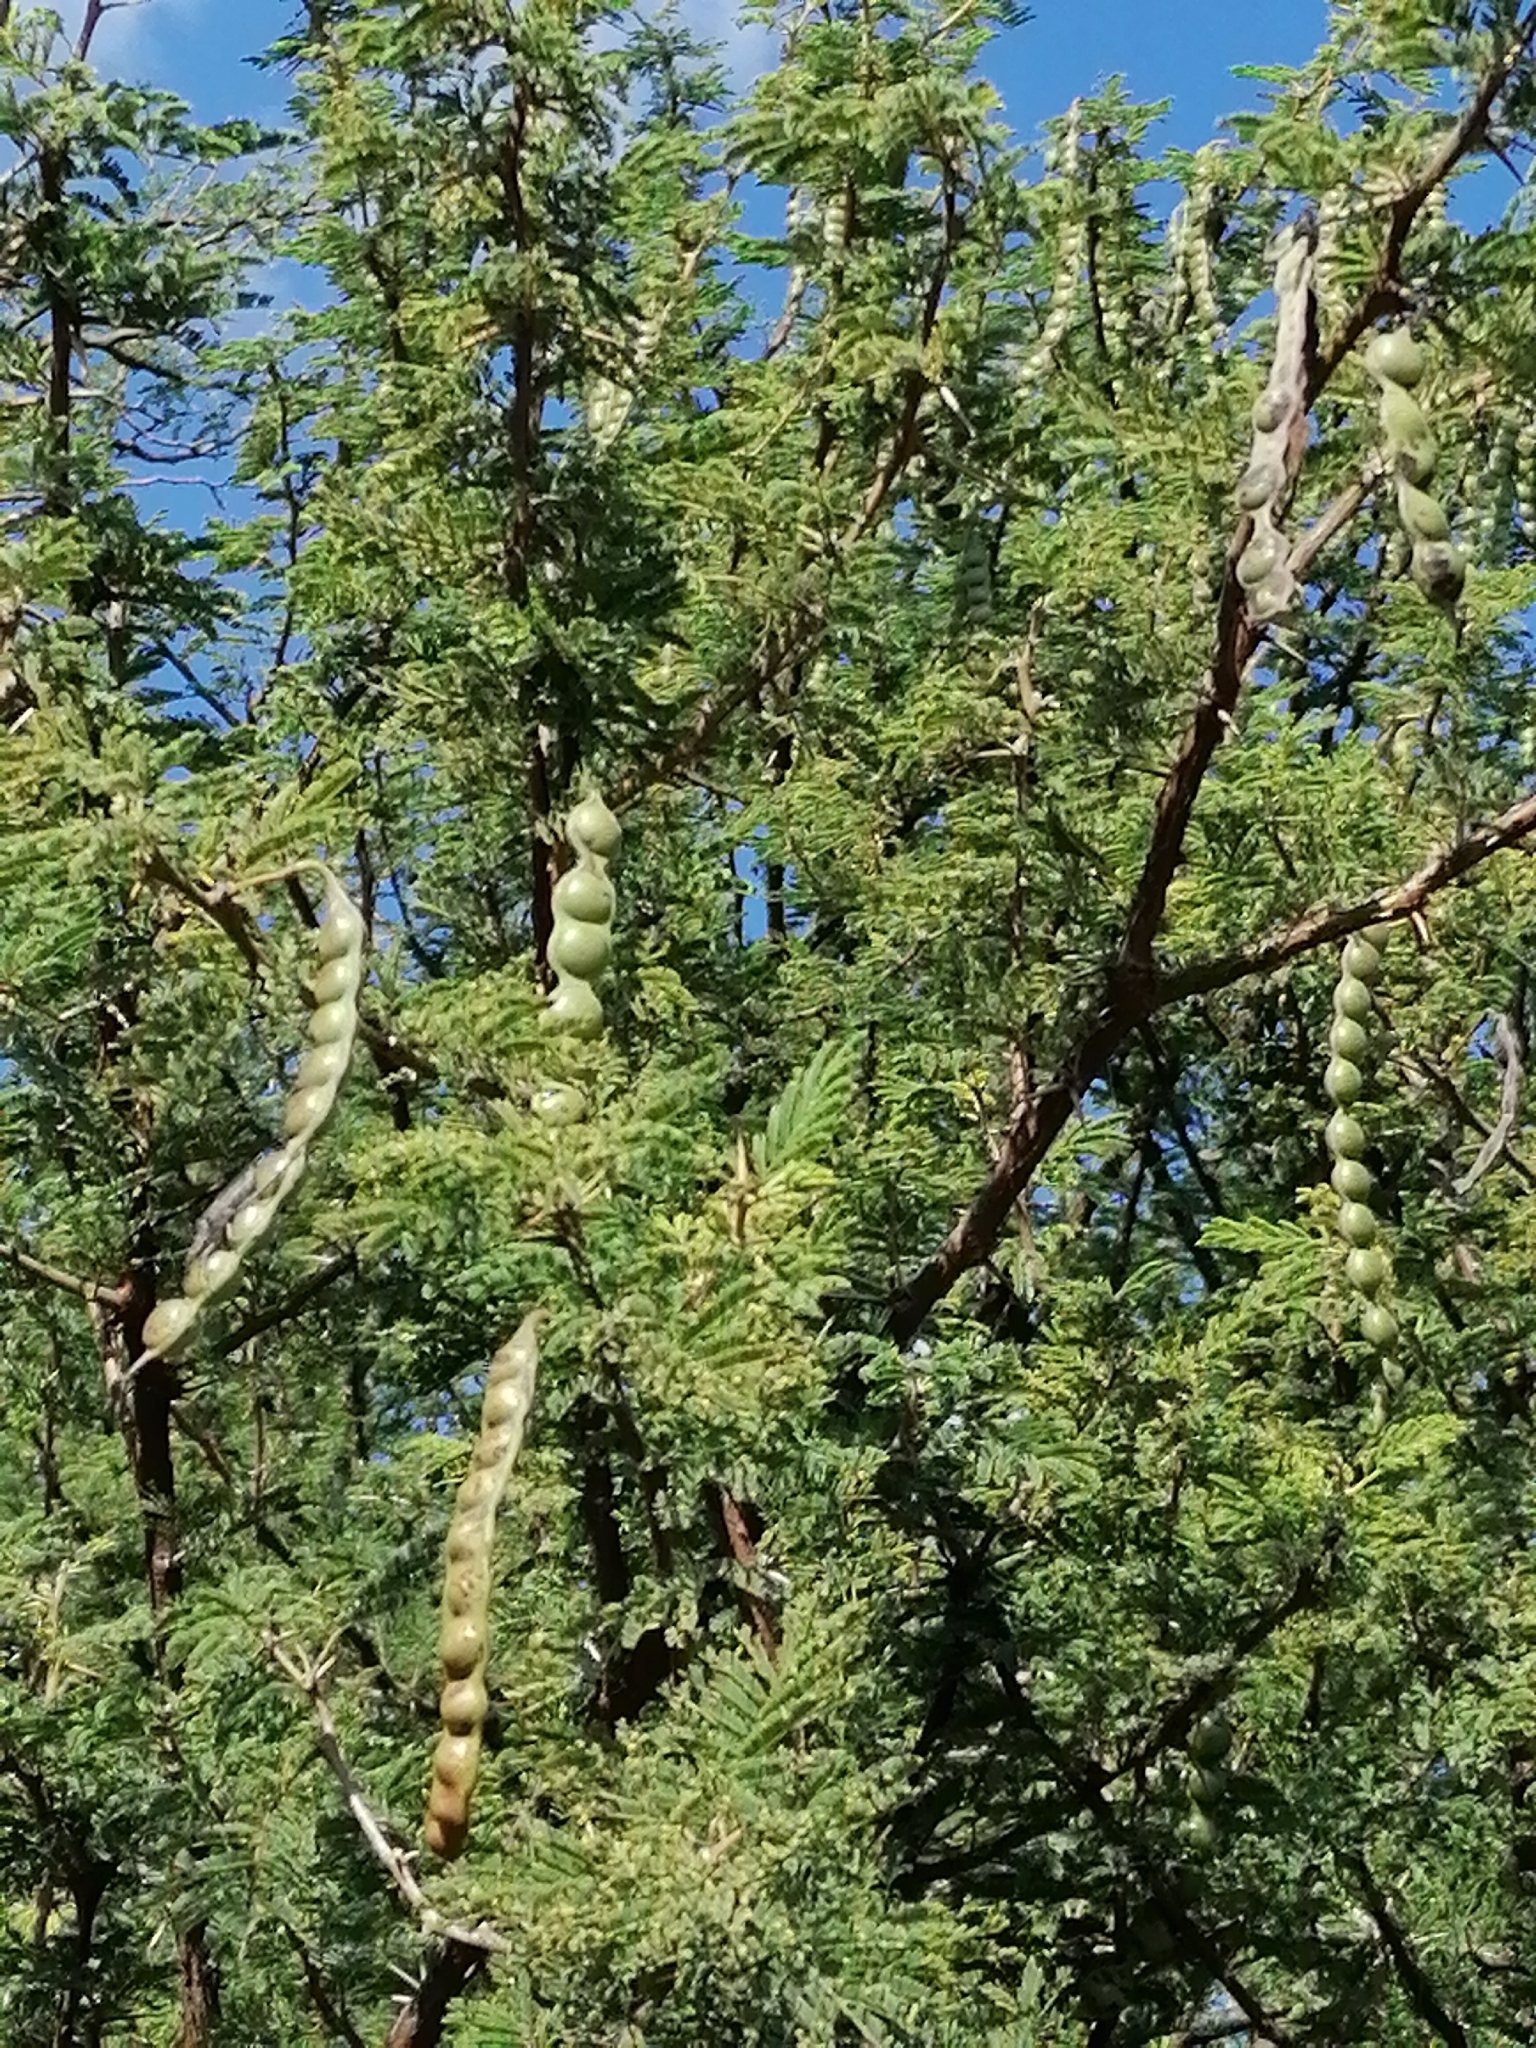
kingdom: Plantae
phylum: Tracheophyta
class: Magnoliopsida
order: Fabales
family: Fabaceae
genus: Vachellia
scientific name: Vachellia nilotica
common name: Arabic gumtree
